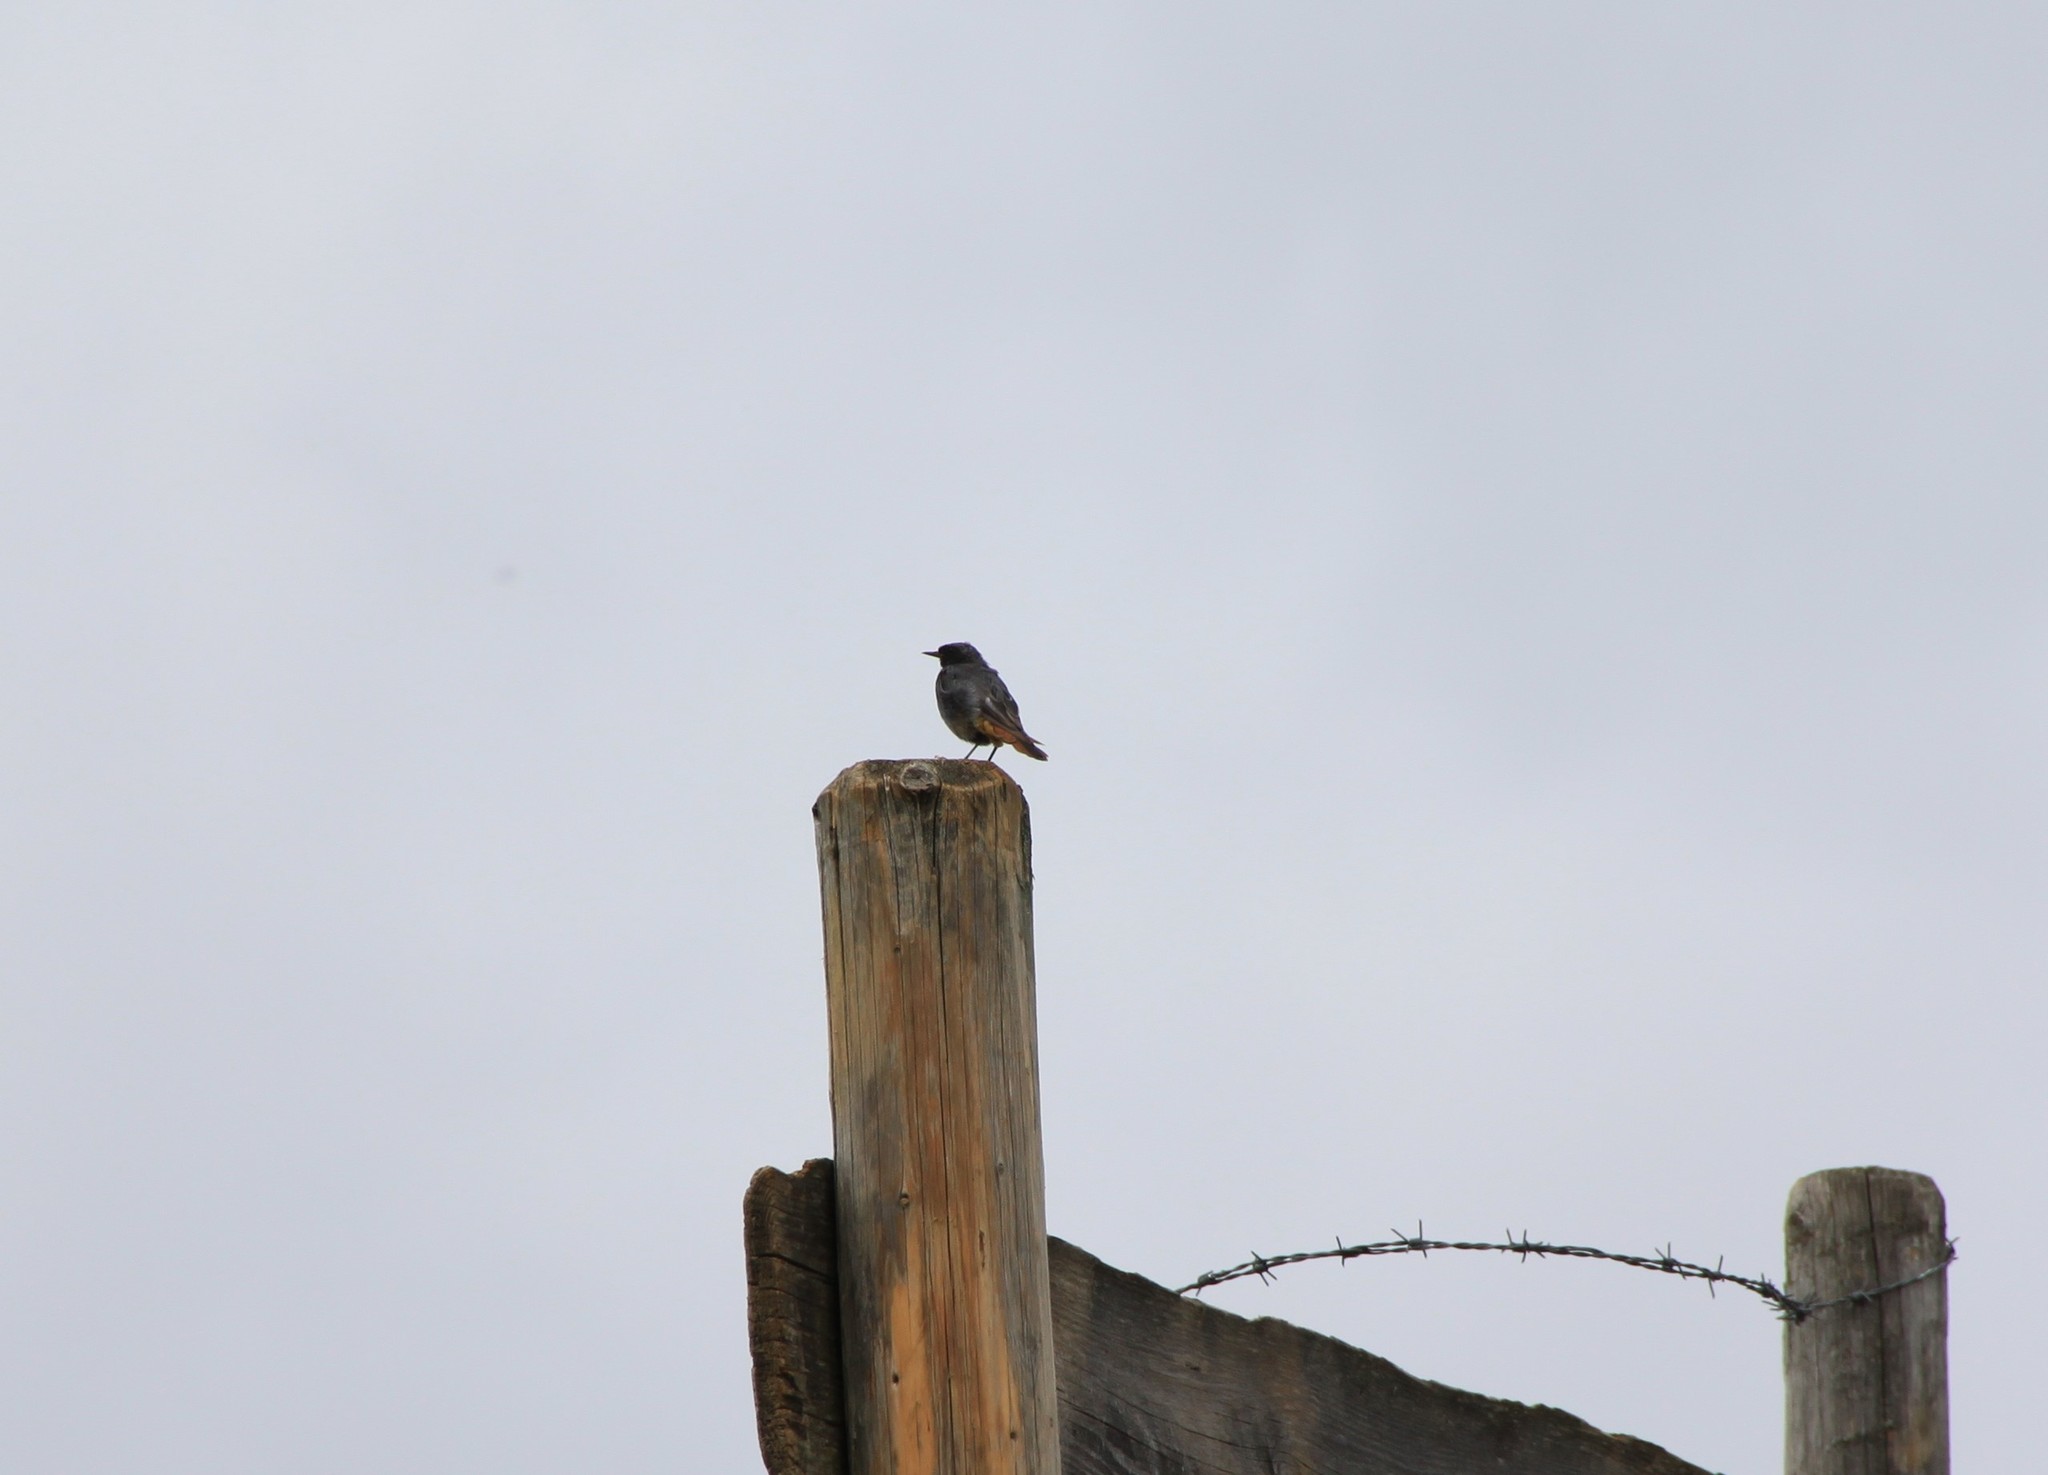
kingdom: Animalia
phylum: Chordata
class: Aves
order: Passeriformes
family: Muscicapidae
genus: Phoenicurus
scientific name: Phoenicurus ochruros
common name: Black redstart
